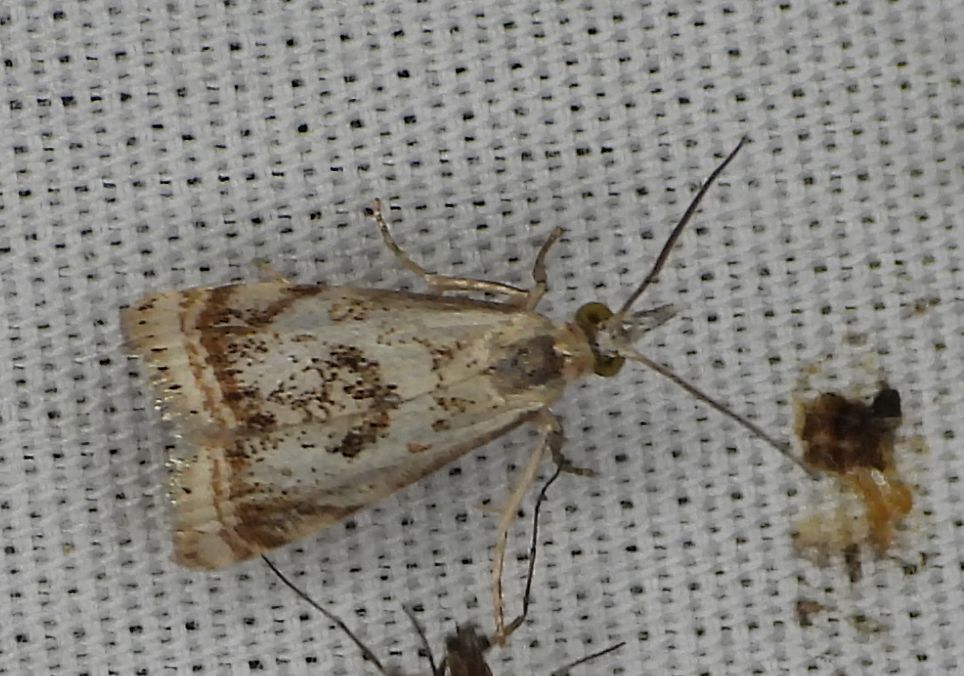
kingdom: Animalia
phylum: Arthropoda
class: Insecta
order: Lepidoptera
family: Crambidae
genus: Microcrambus
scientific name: Microcrambus elegans
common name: Elegant grass-veneer
